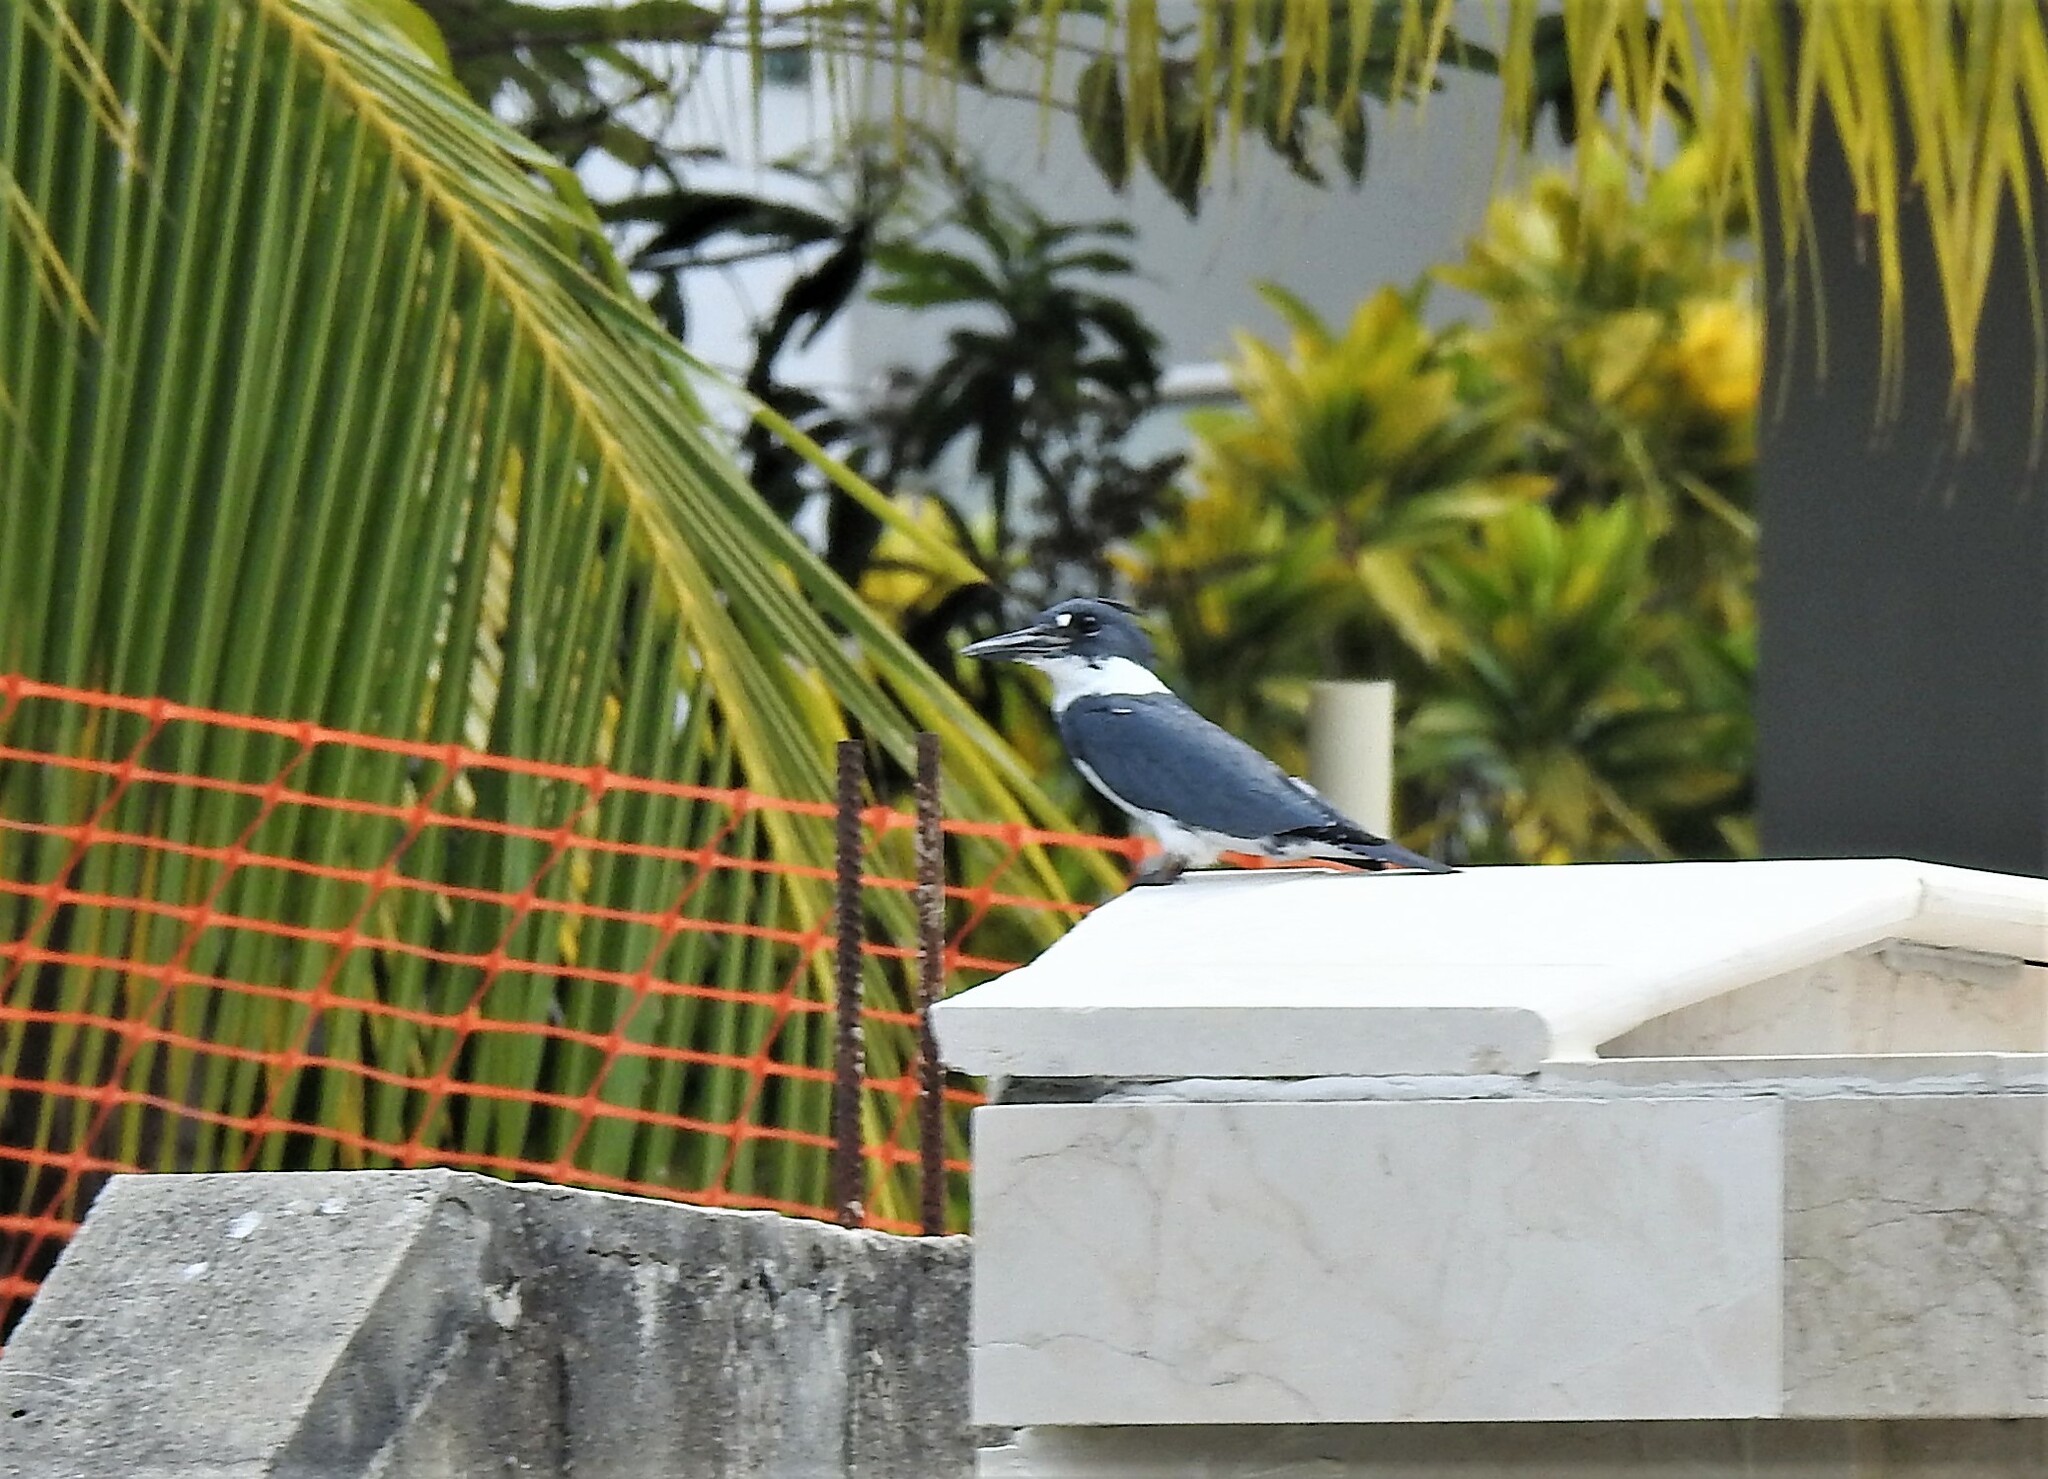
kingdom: Animalia
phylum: Chordata
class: Aves
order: Coraciiformes
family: Alcedinidae
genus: Megaceryle
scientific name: Megaceryle alcyon
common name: Belted kingfisher
